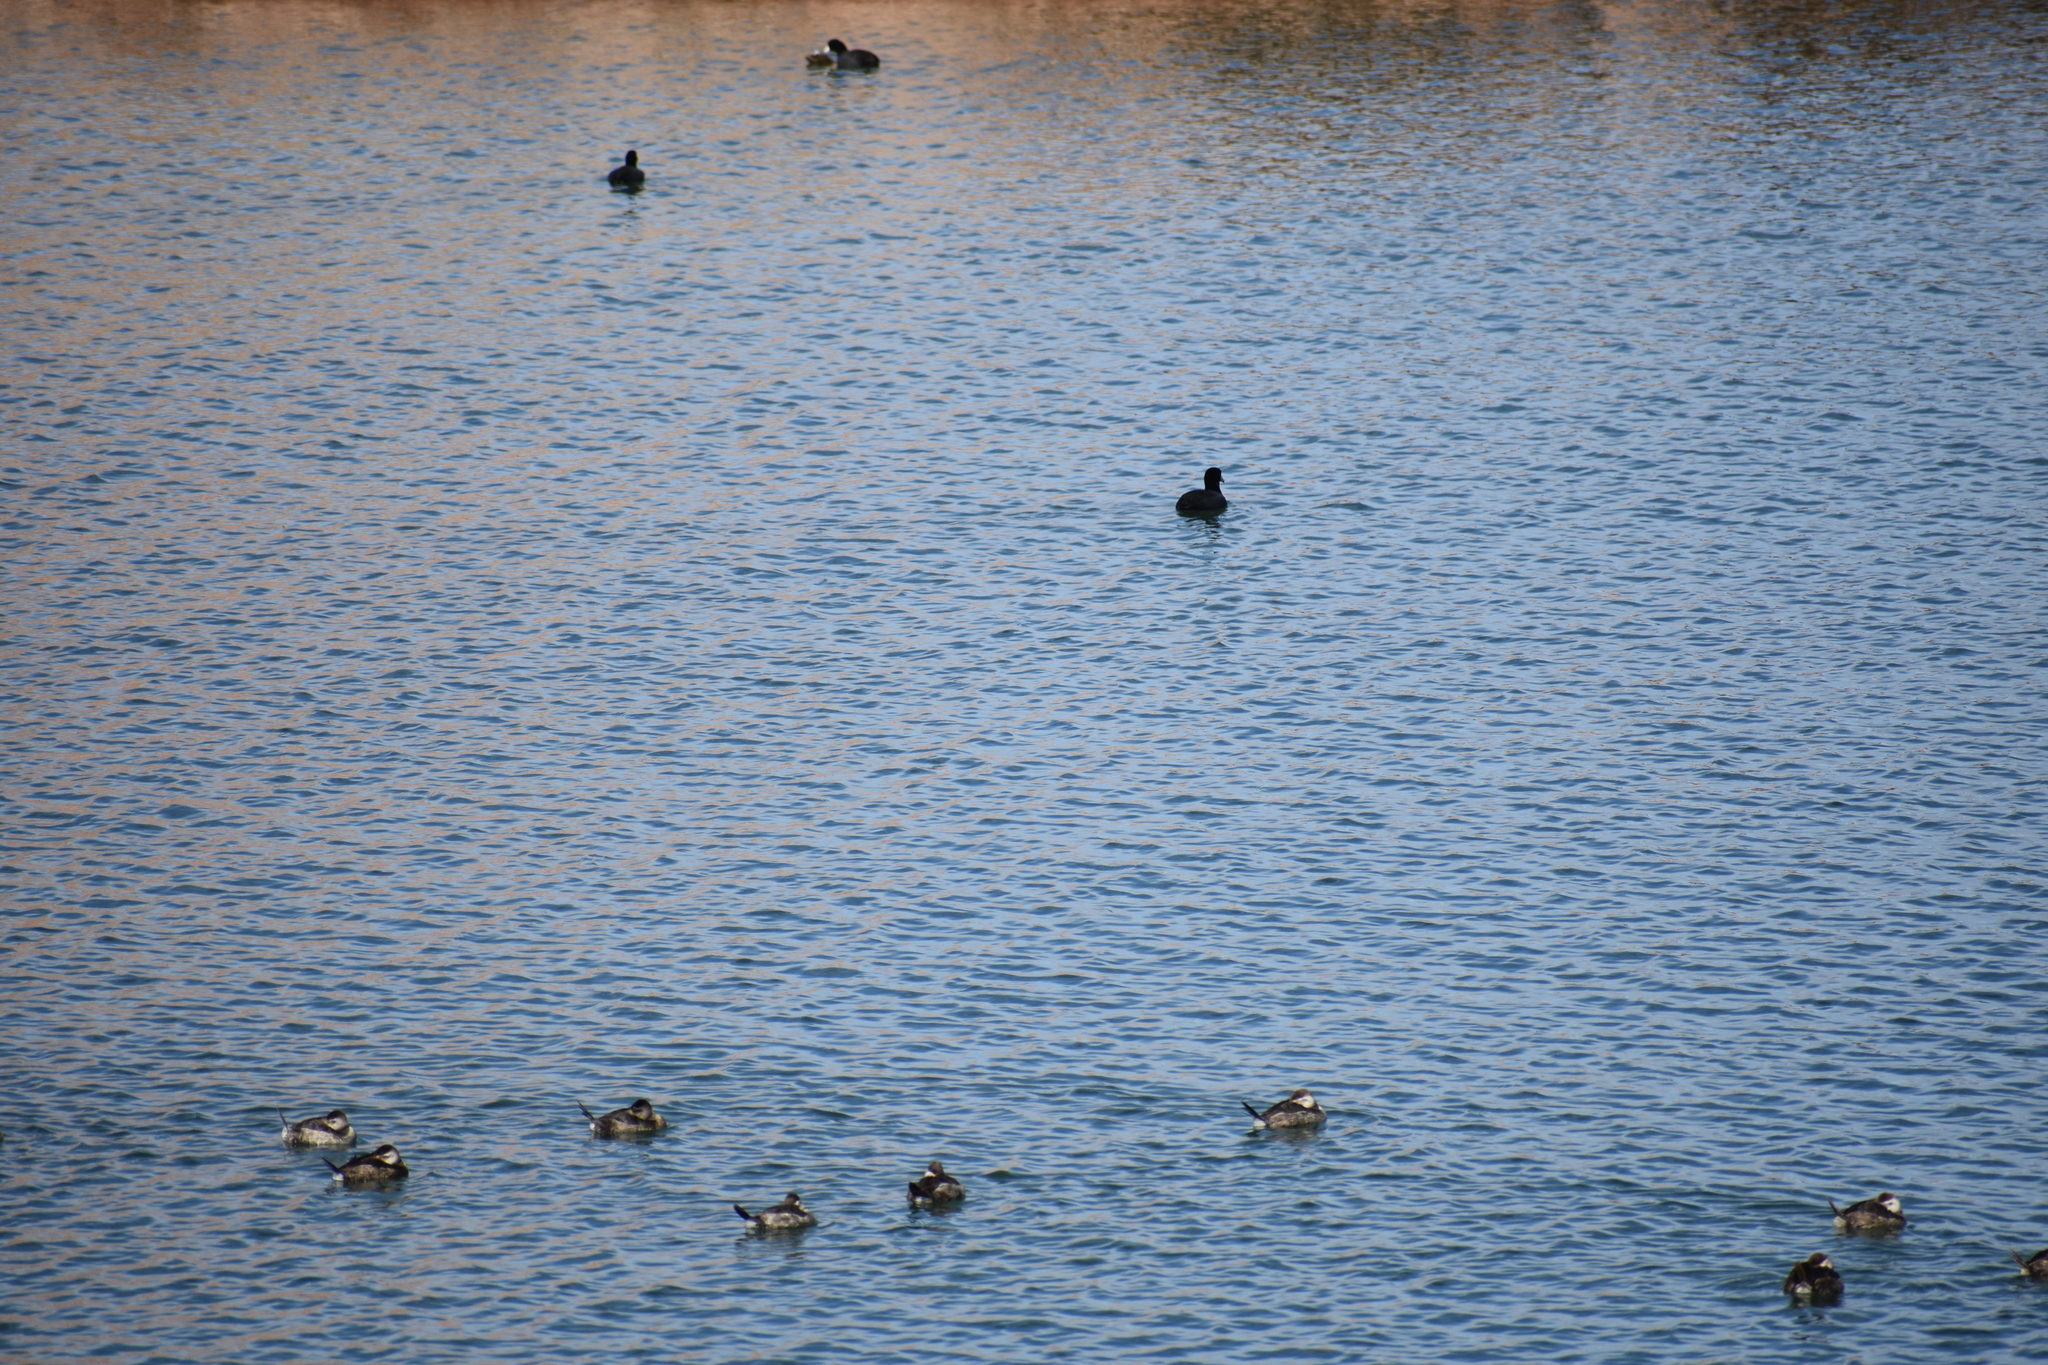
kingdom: Animalia
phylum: Chordata
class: Aves
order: Anseriformes
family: Anatidae
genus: Oxyura
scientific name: Oxyura jamaicensis
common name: Ruddy duck
